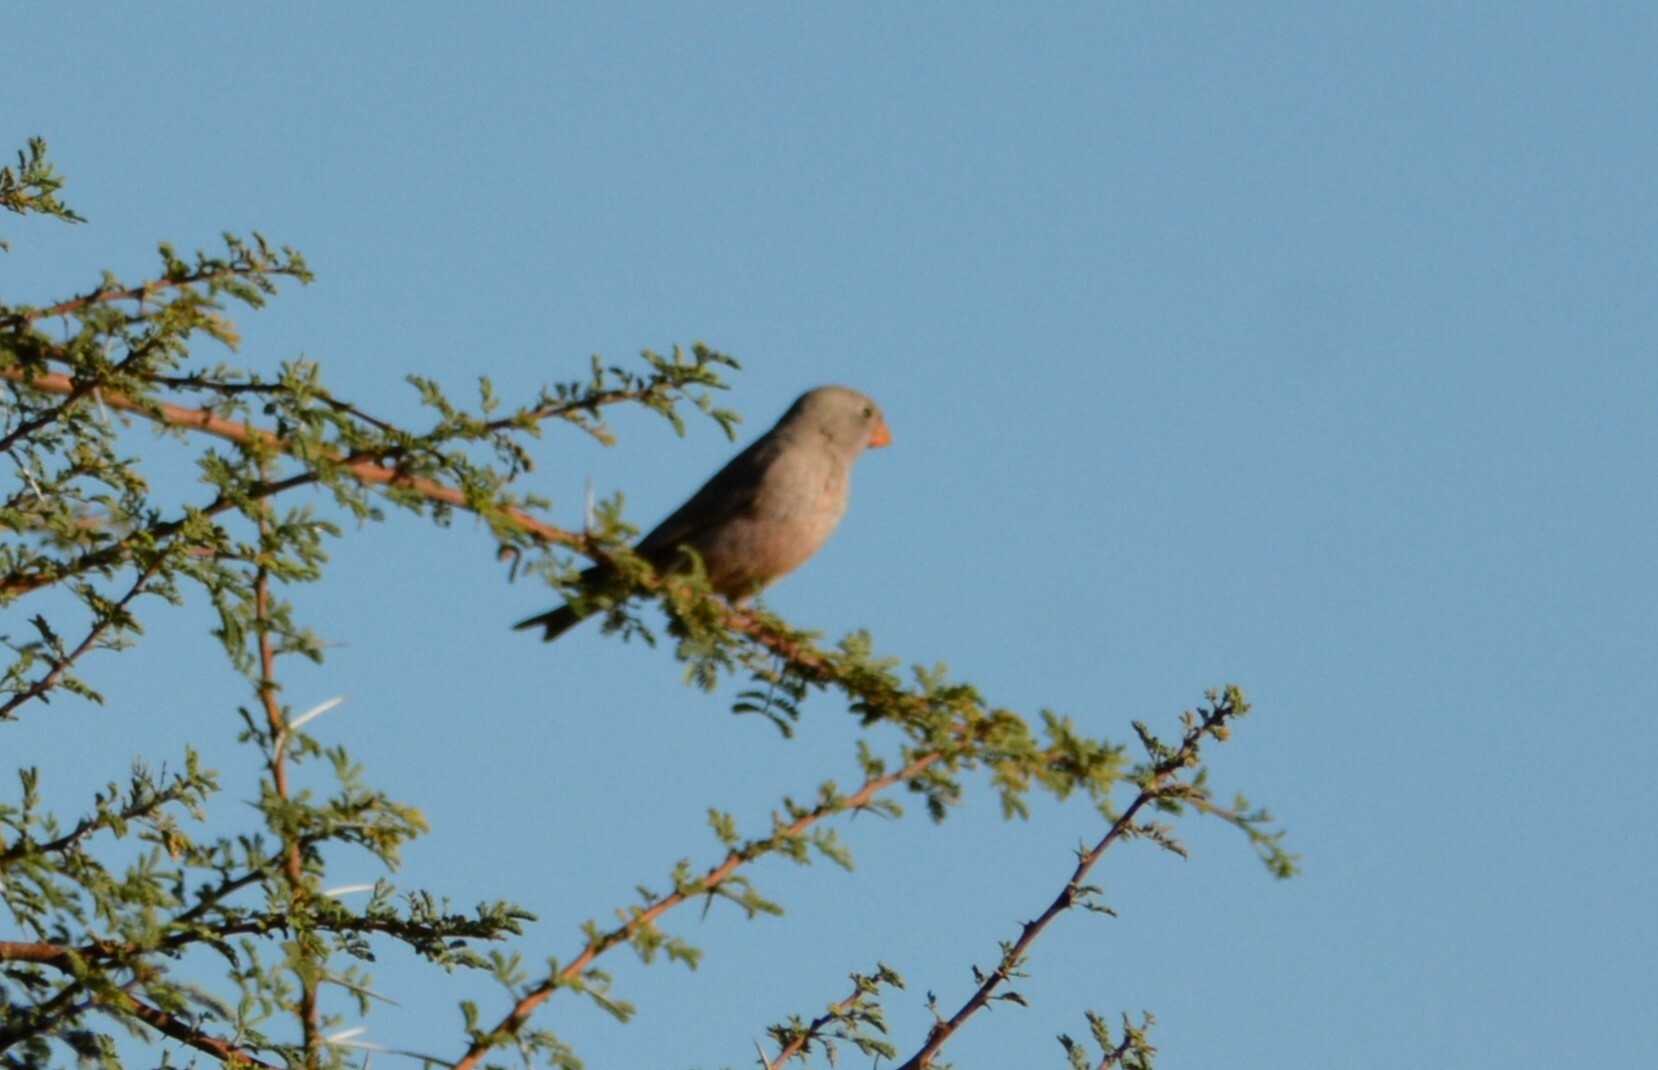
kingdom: Animalia
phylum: Chordata
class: Aves
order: Passeriformes
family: Fringillidae
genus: Bucanetes
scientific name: Bucanetes githagineus
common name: Trumpeter finch
